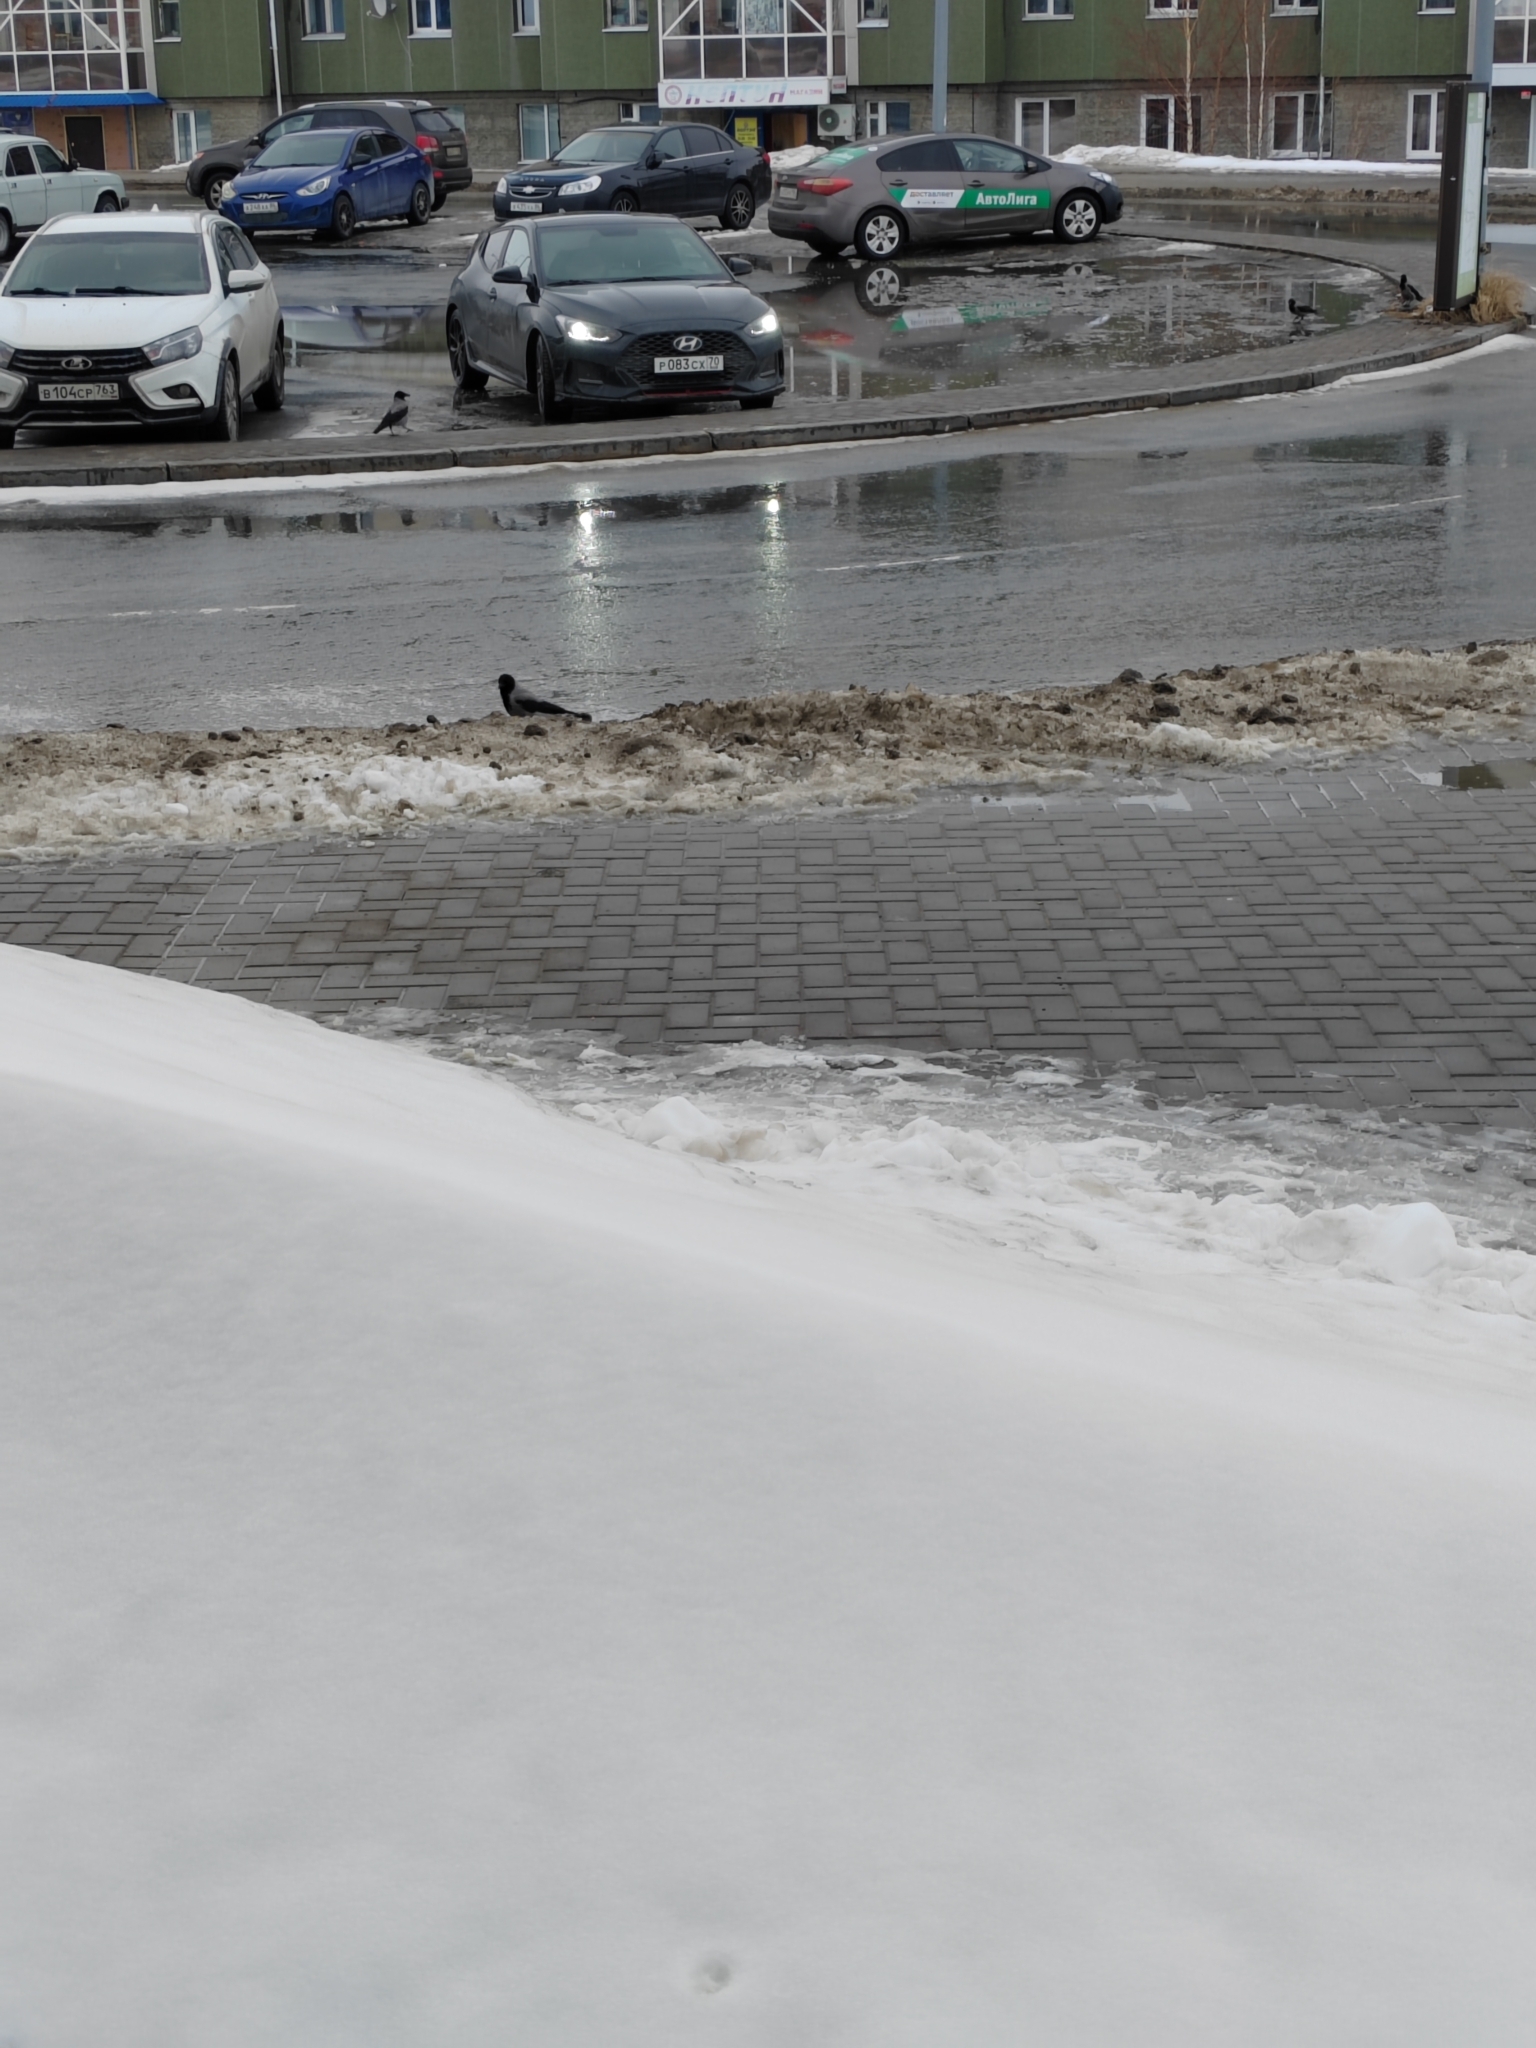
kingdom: Animalia
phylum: Chordata
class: Aves
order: Passeriformes
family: Corvidae
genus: Corvus
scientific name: Corvus cornix
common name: Hooded crow
